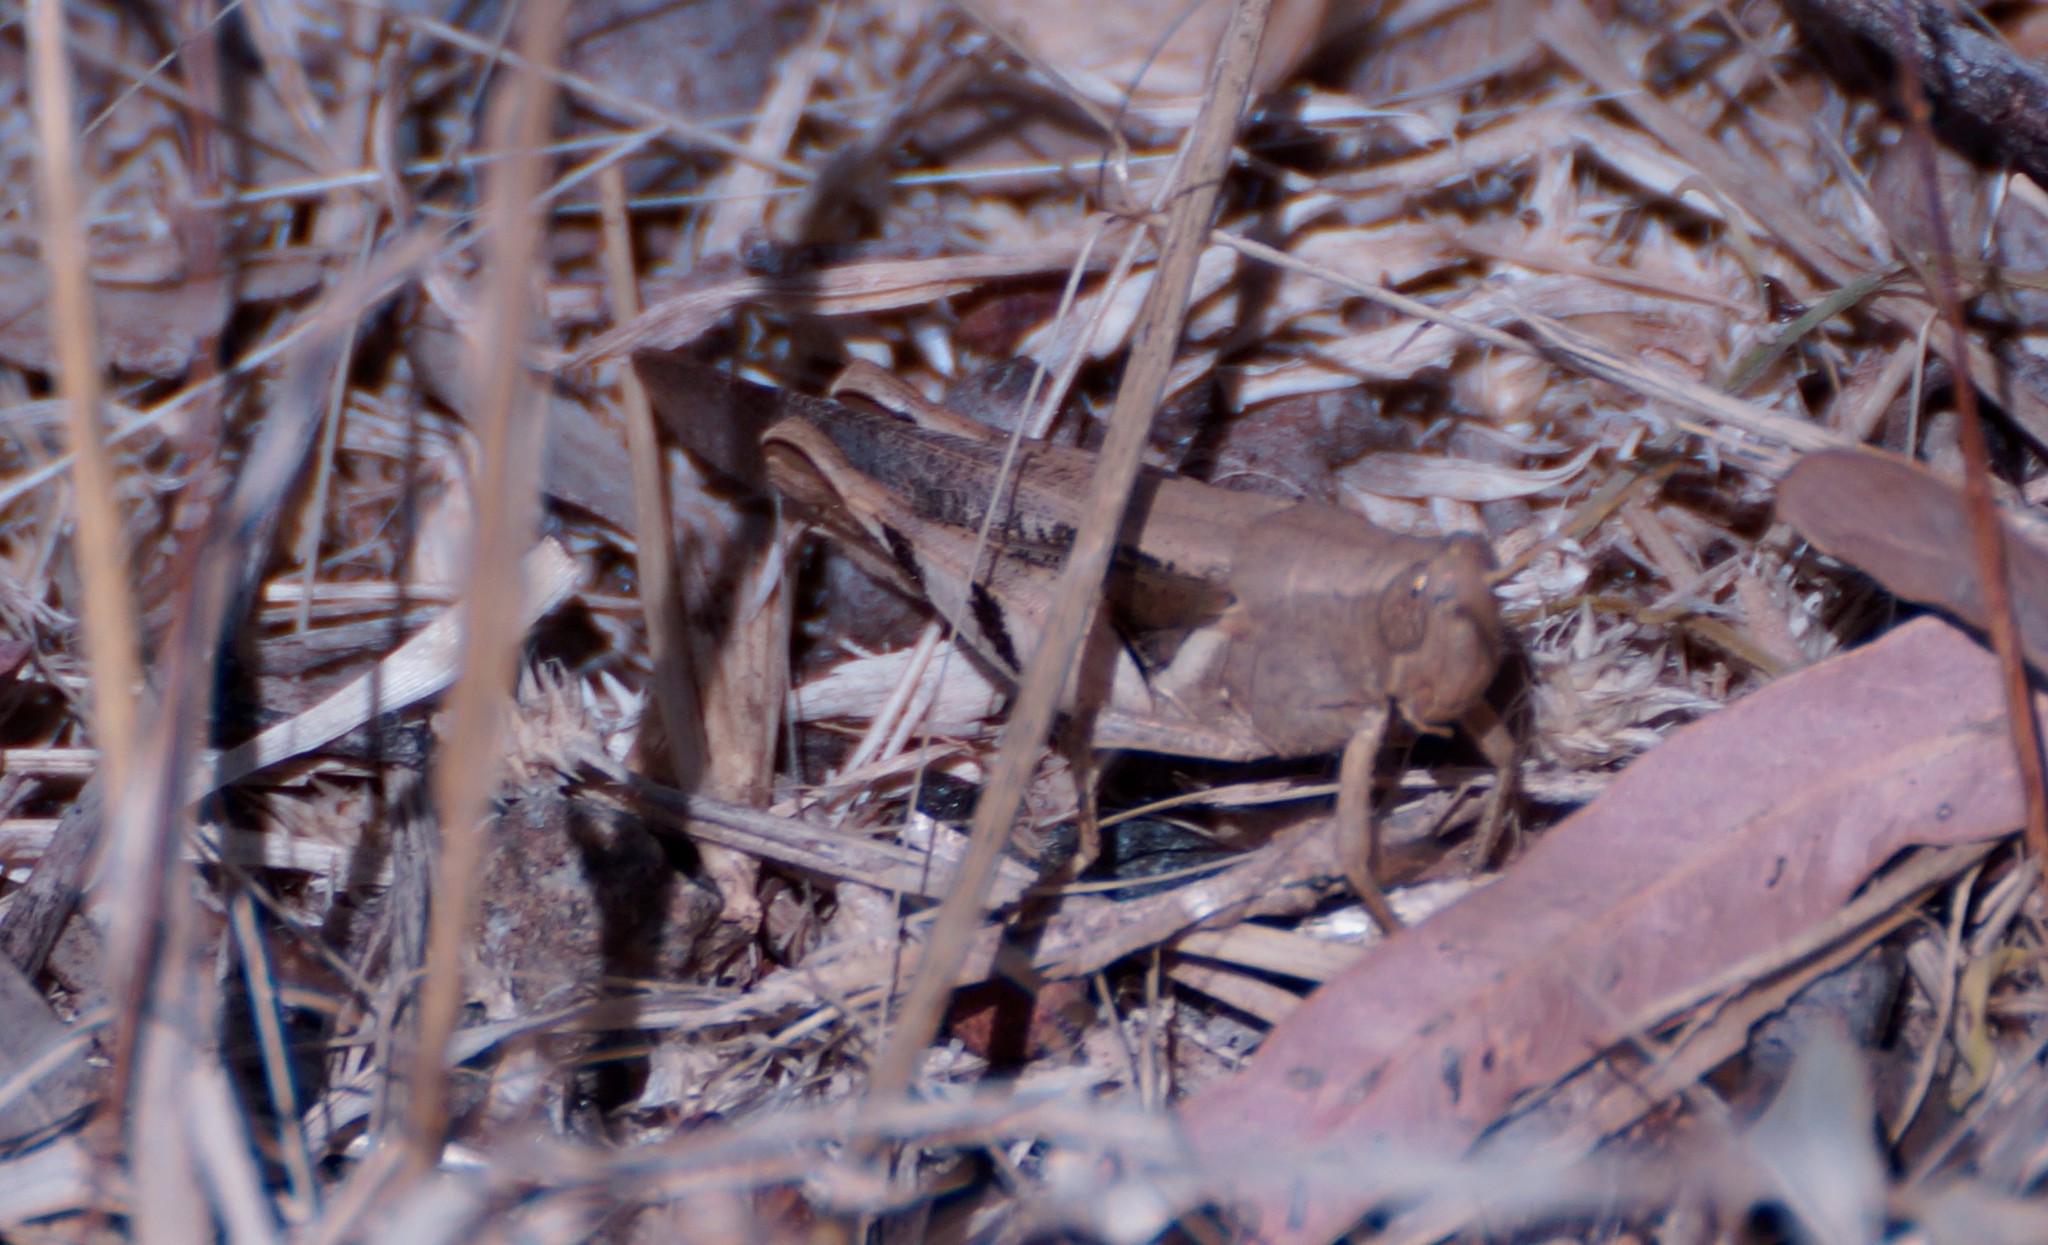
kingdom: Animalia
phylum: Arthropoda
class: Insecta
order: Orthoptera
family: Acrididae
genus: Stenocatantops
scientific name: Stenocatantops angustifrons
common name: Common tropical sharptail
